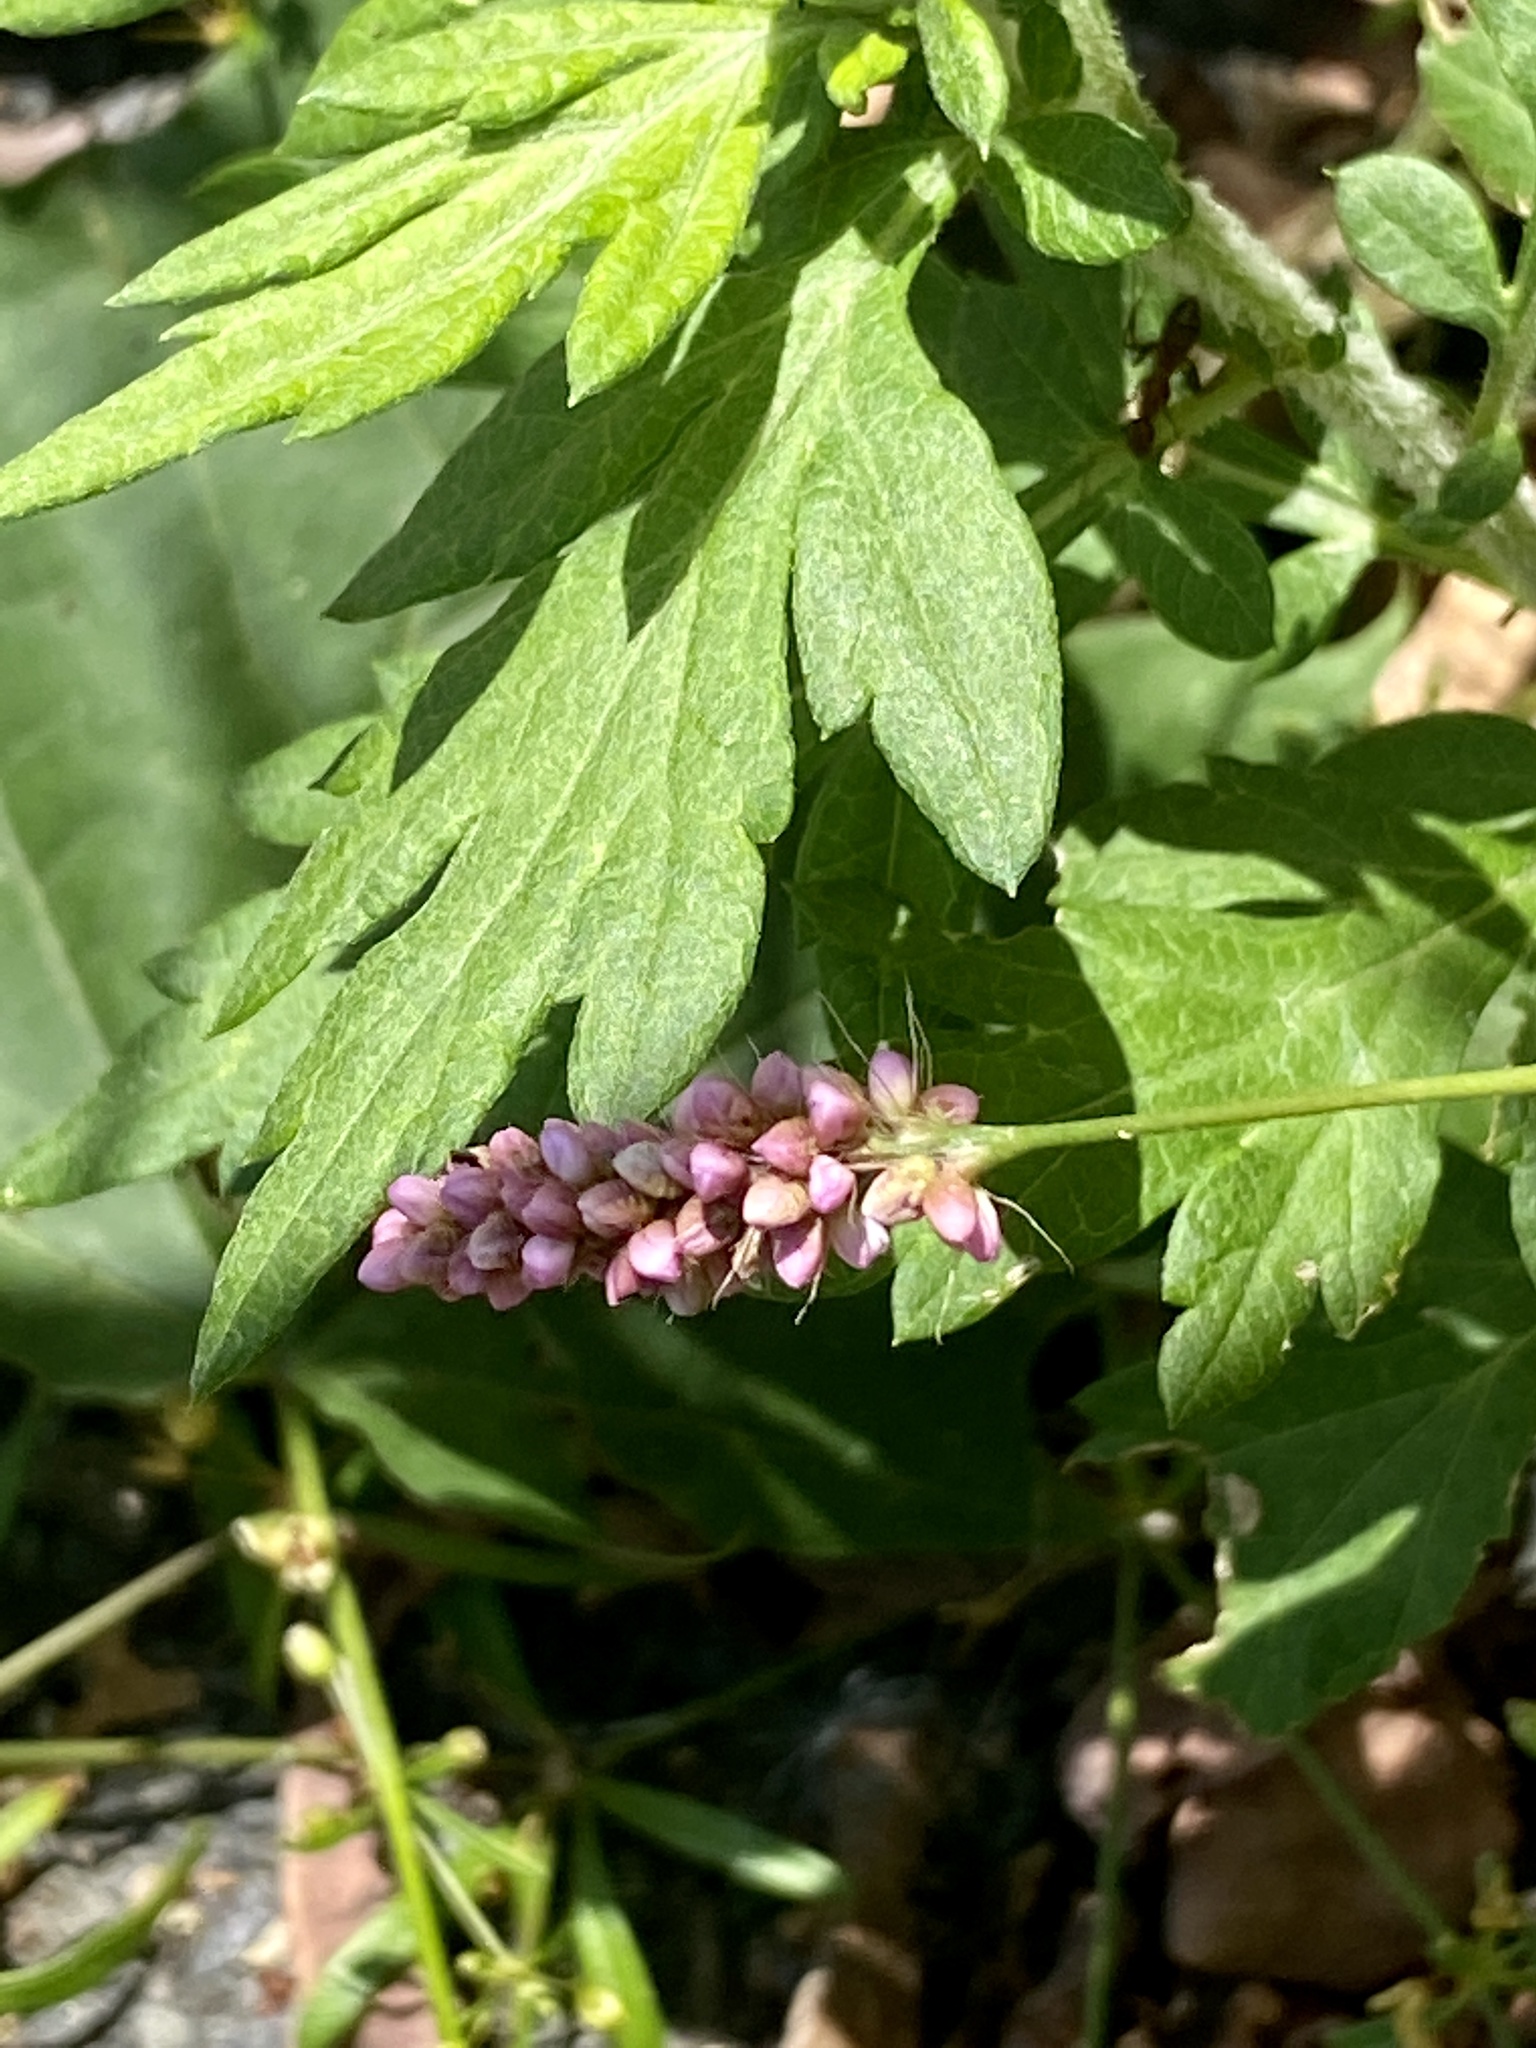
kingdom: Plantae
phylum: Tracheophyta
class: Magnoliopsida
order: Caryophyllales
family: Polygonaceae
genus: Persicaria
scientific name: Persicaria longiseta
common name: Bristly lady's-thumb
